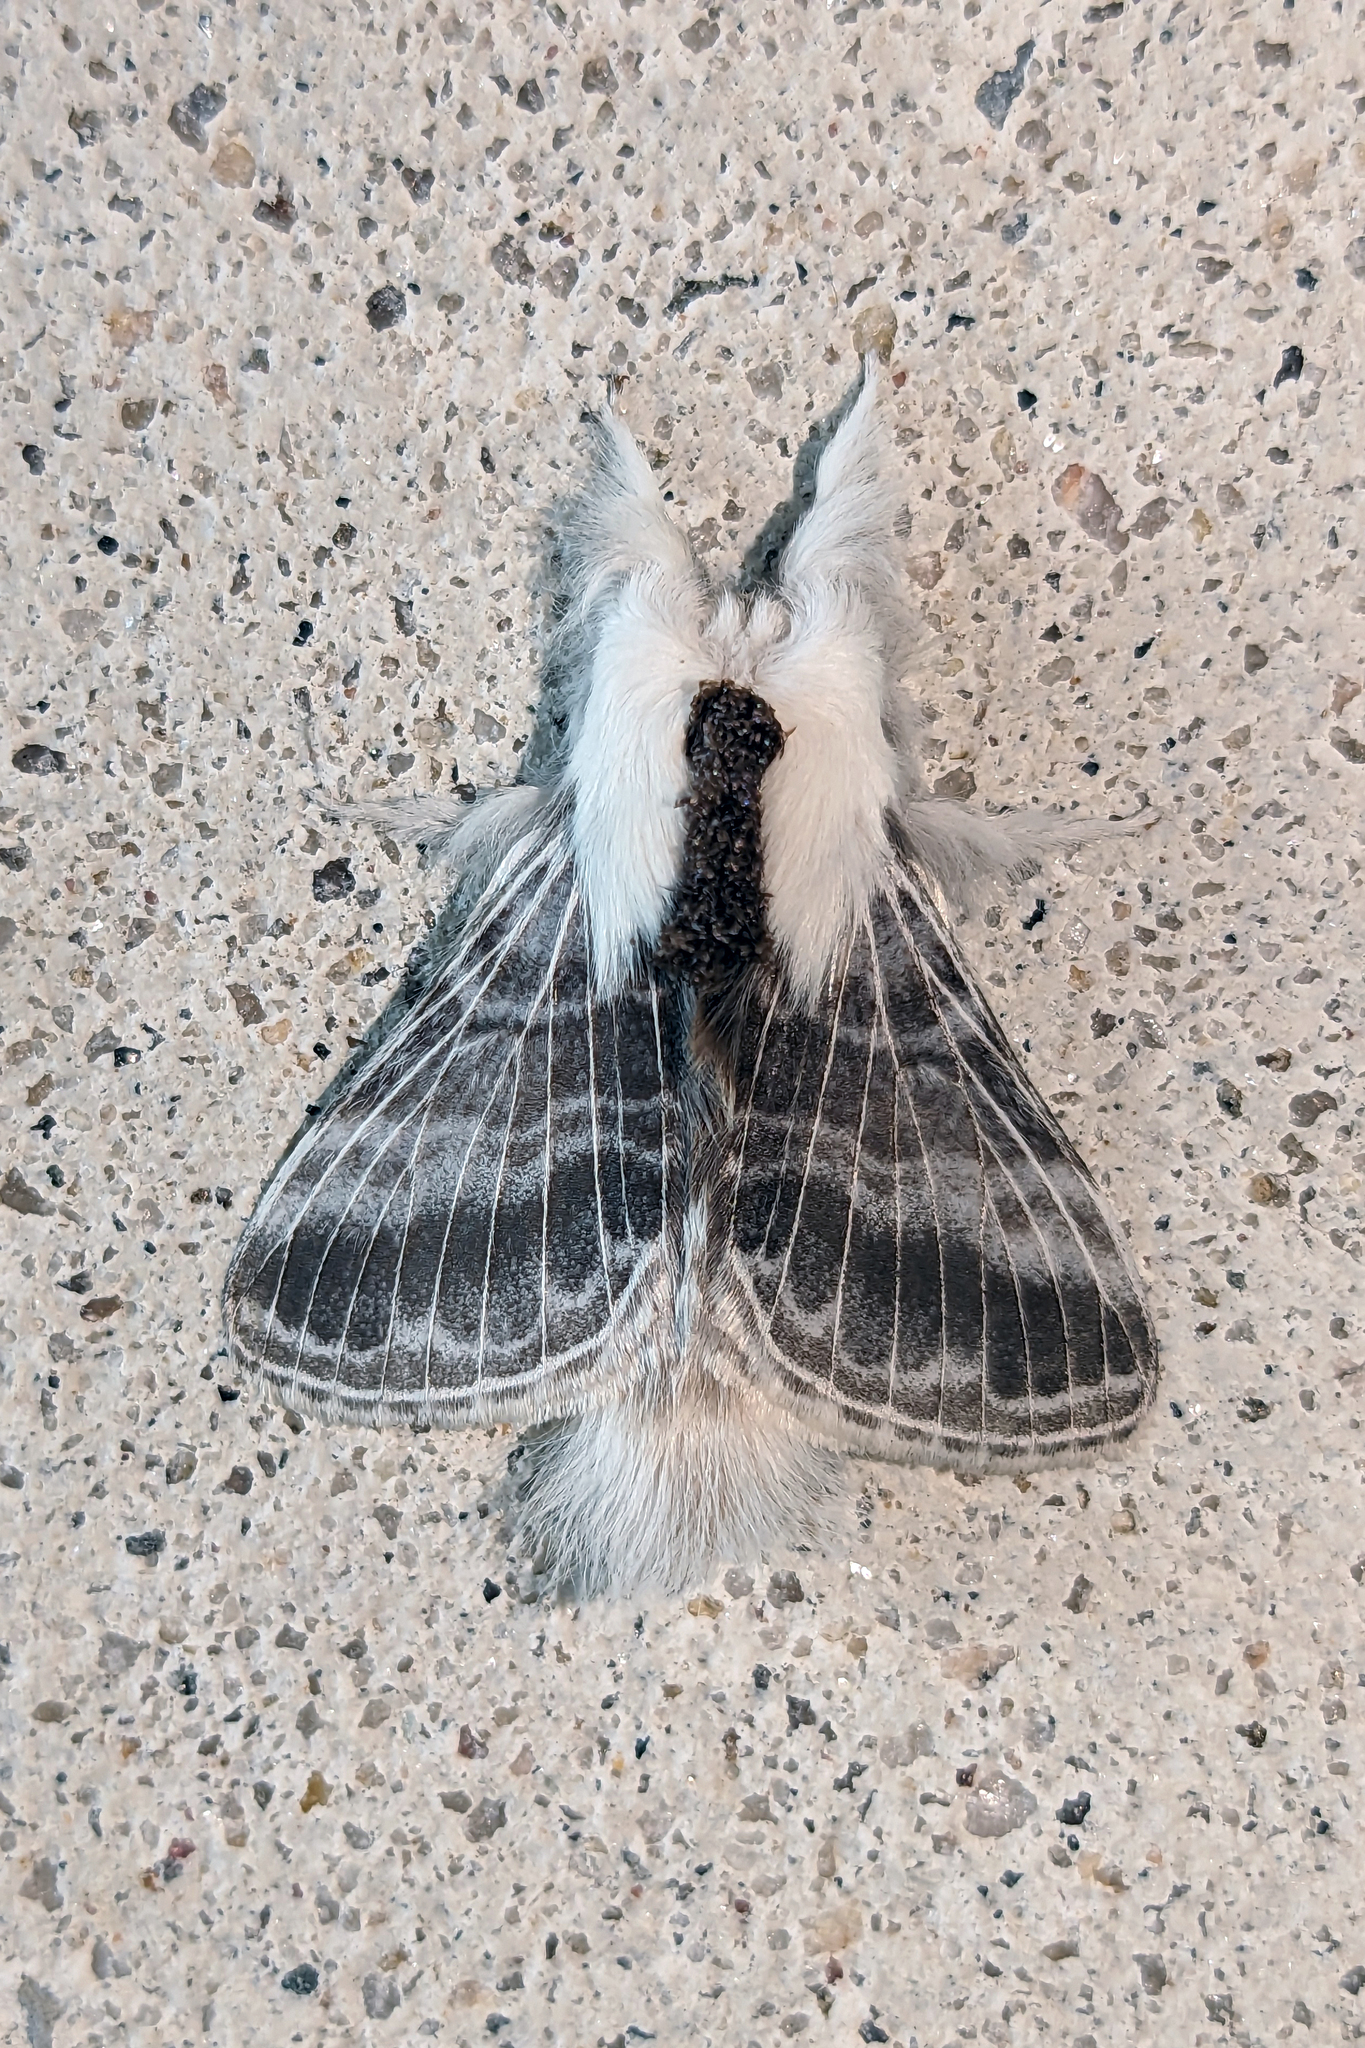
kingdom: Animalia
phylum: Arthropoda
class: Insecta
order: Lepidoptera
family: Lasiocampidae
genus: Tolype
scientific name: Tolype velleda
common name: Large tolype moth
